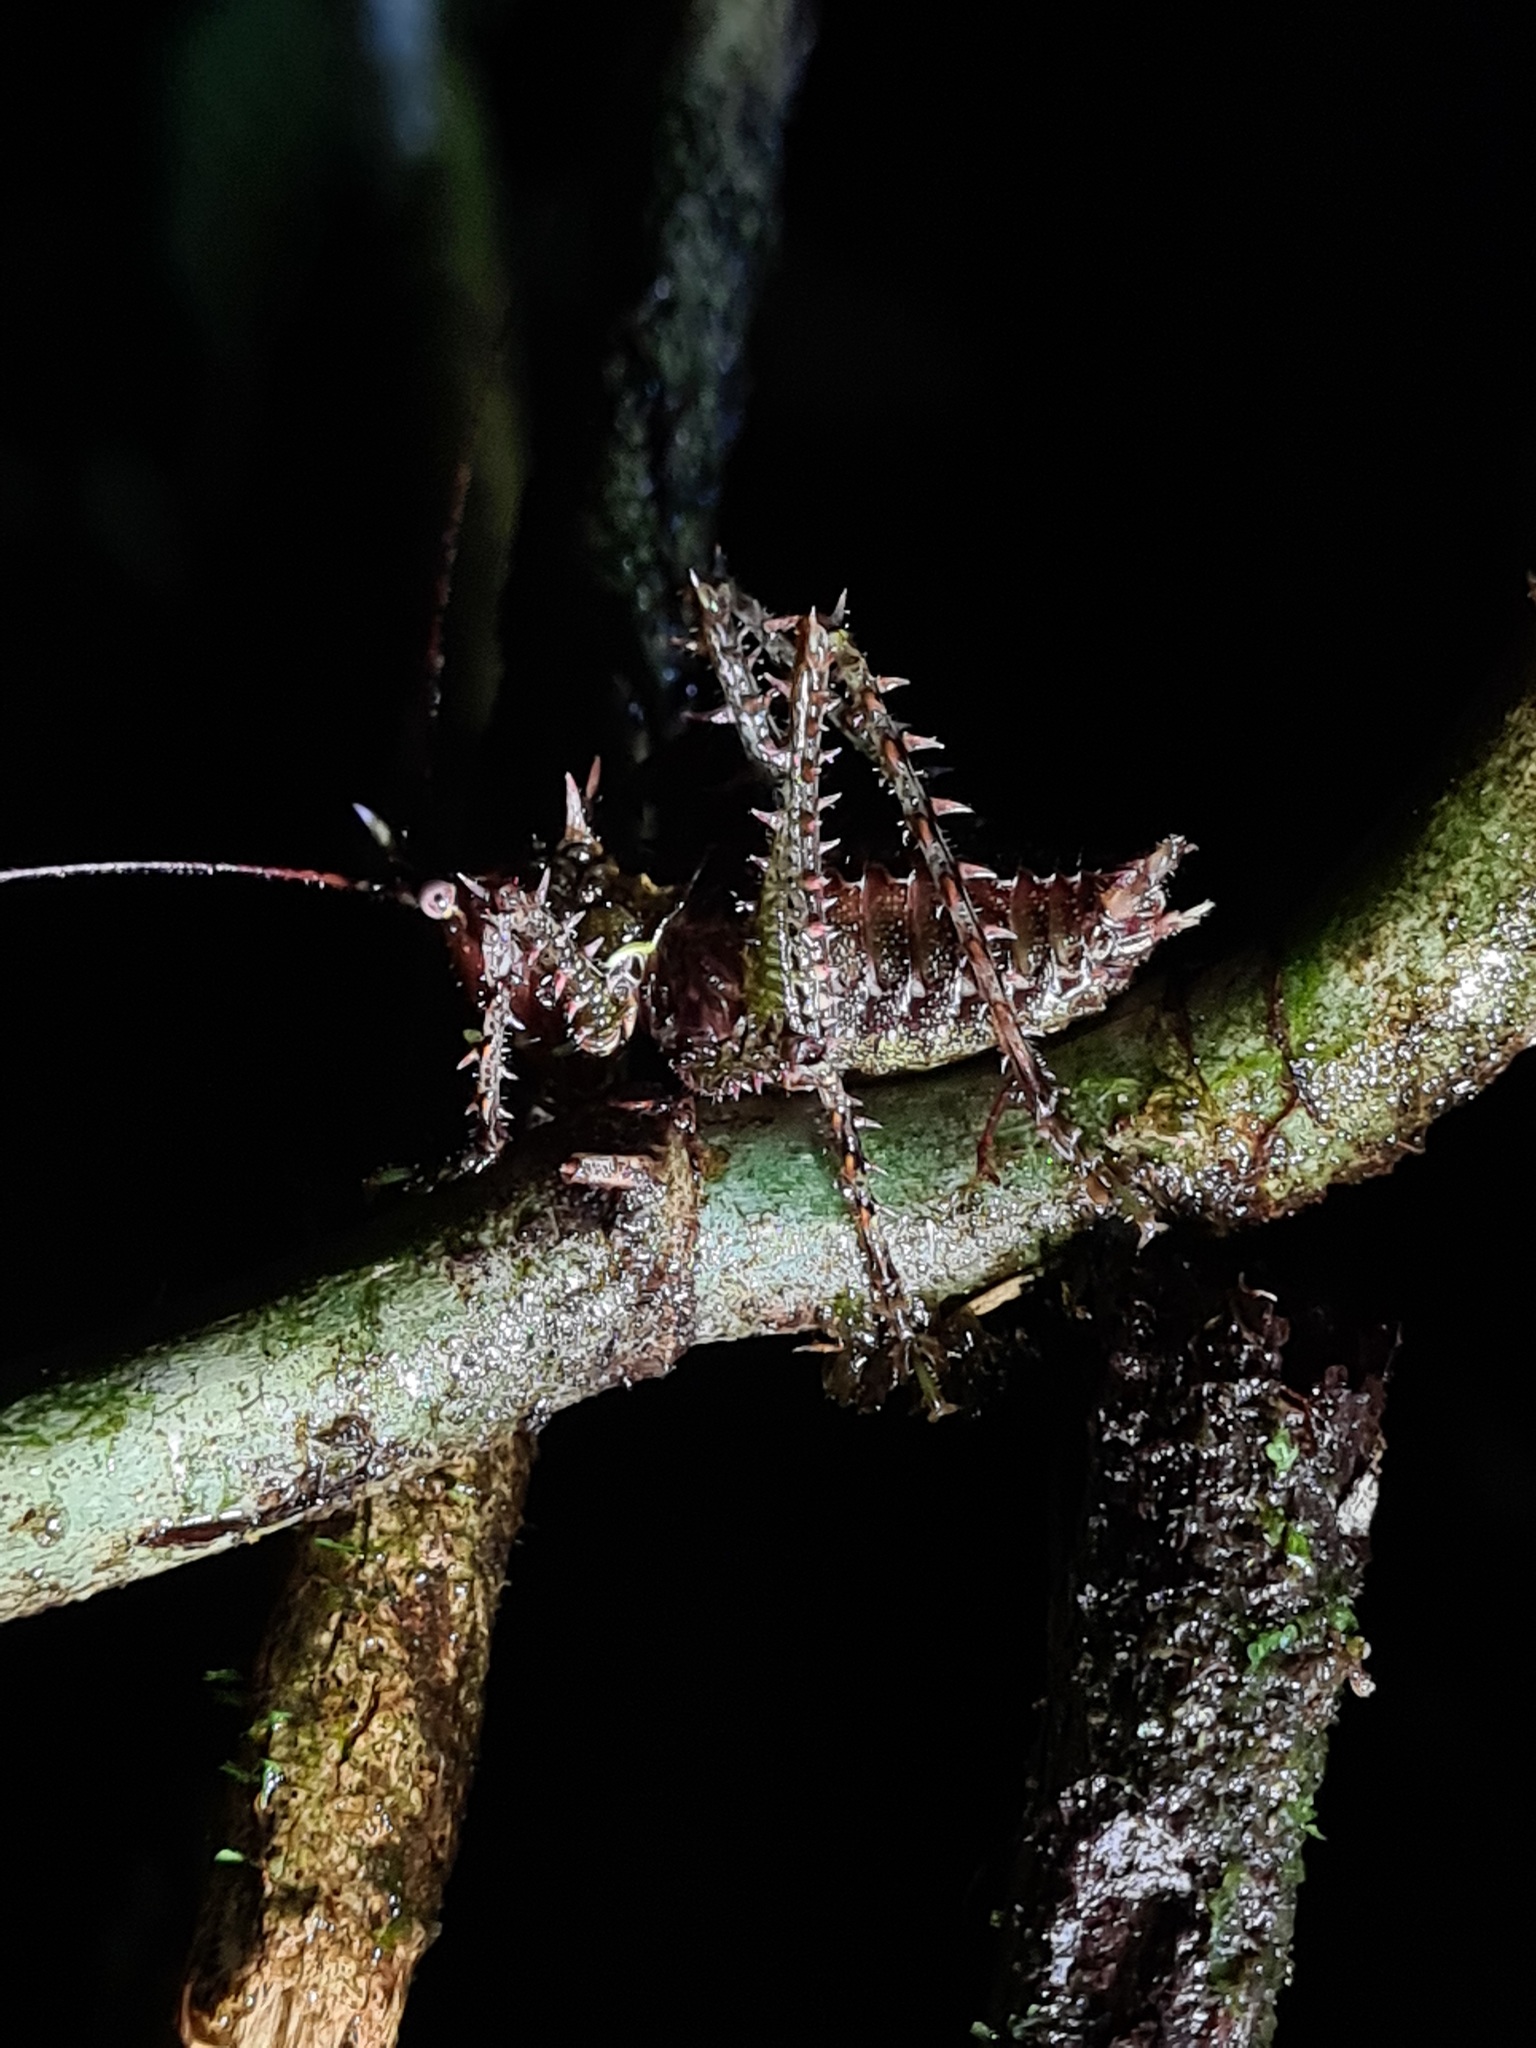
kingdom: Animalia
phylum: Arthropoda
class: Insecta
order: Orthoptera
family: Tettigoniidae
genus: Panacanthus
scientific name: Panacanthus varius
